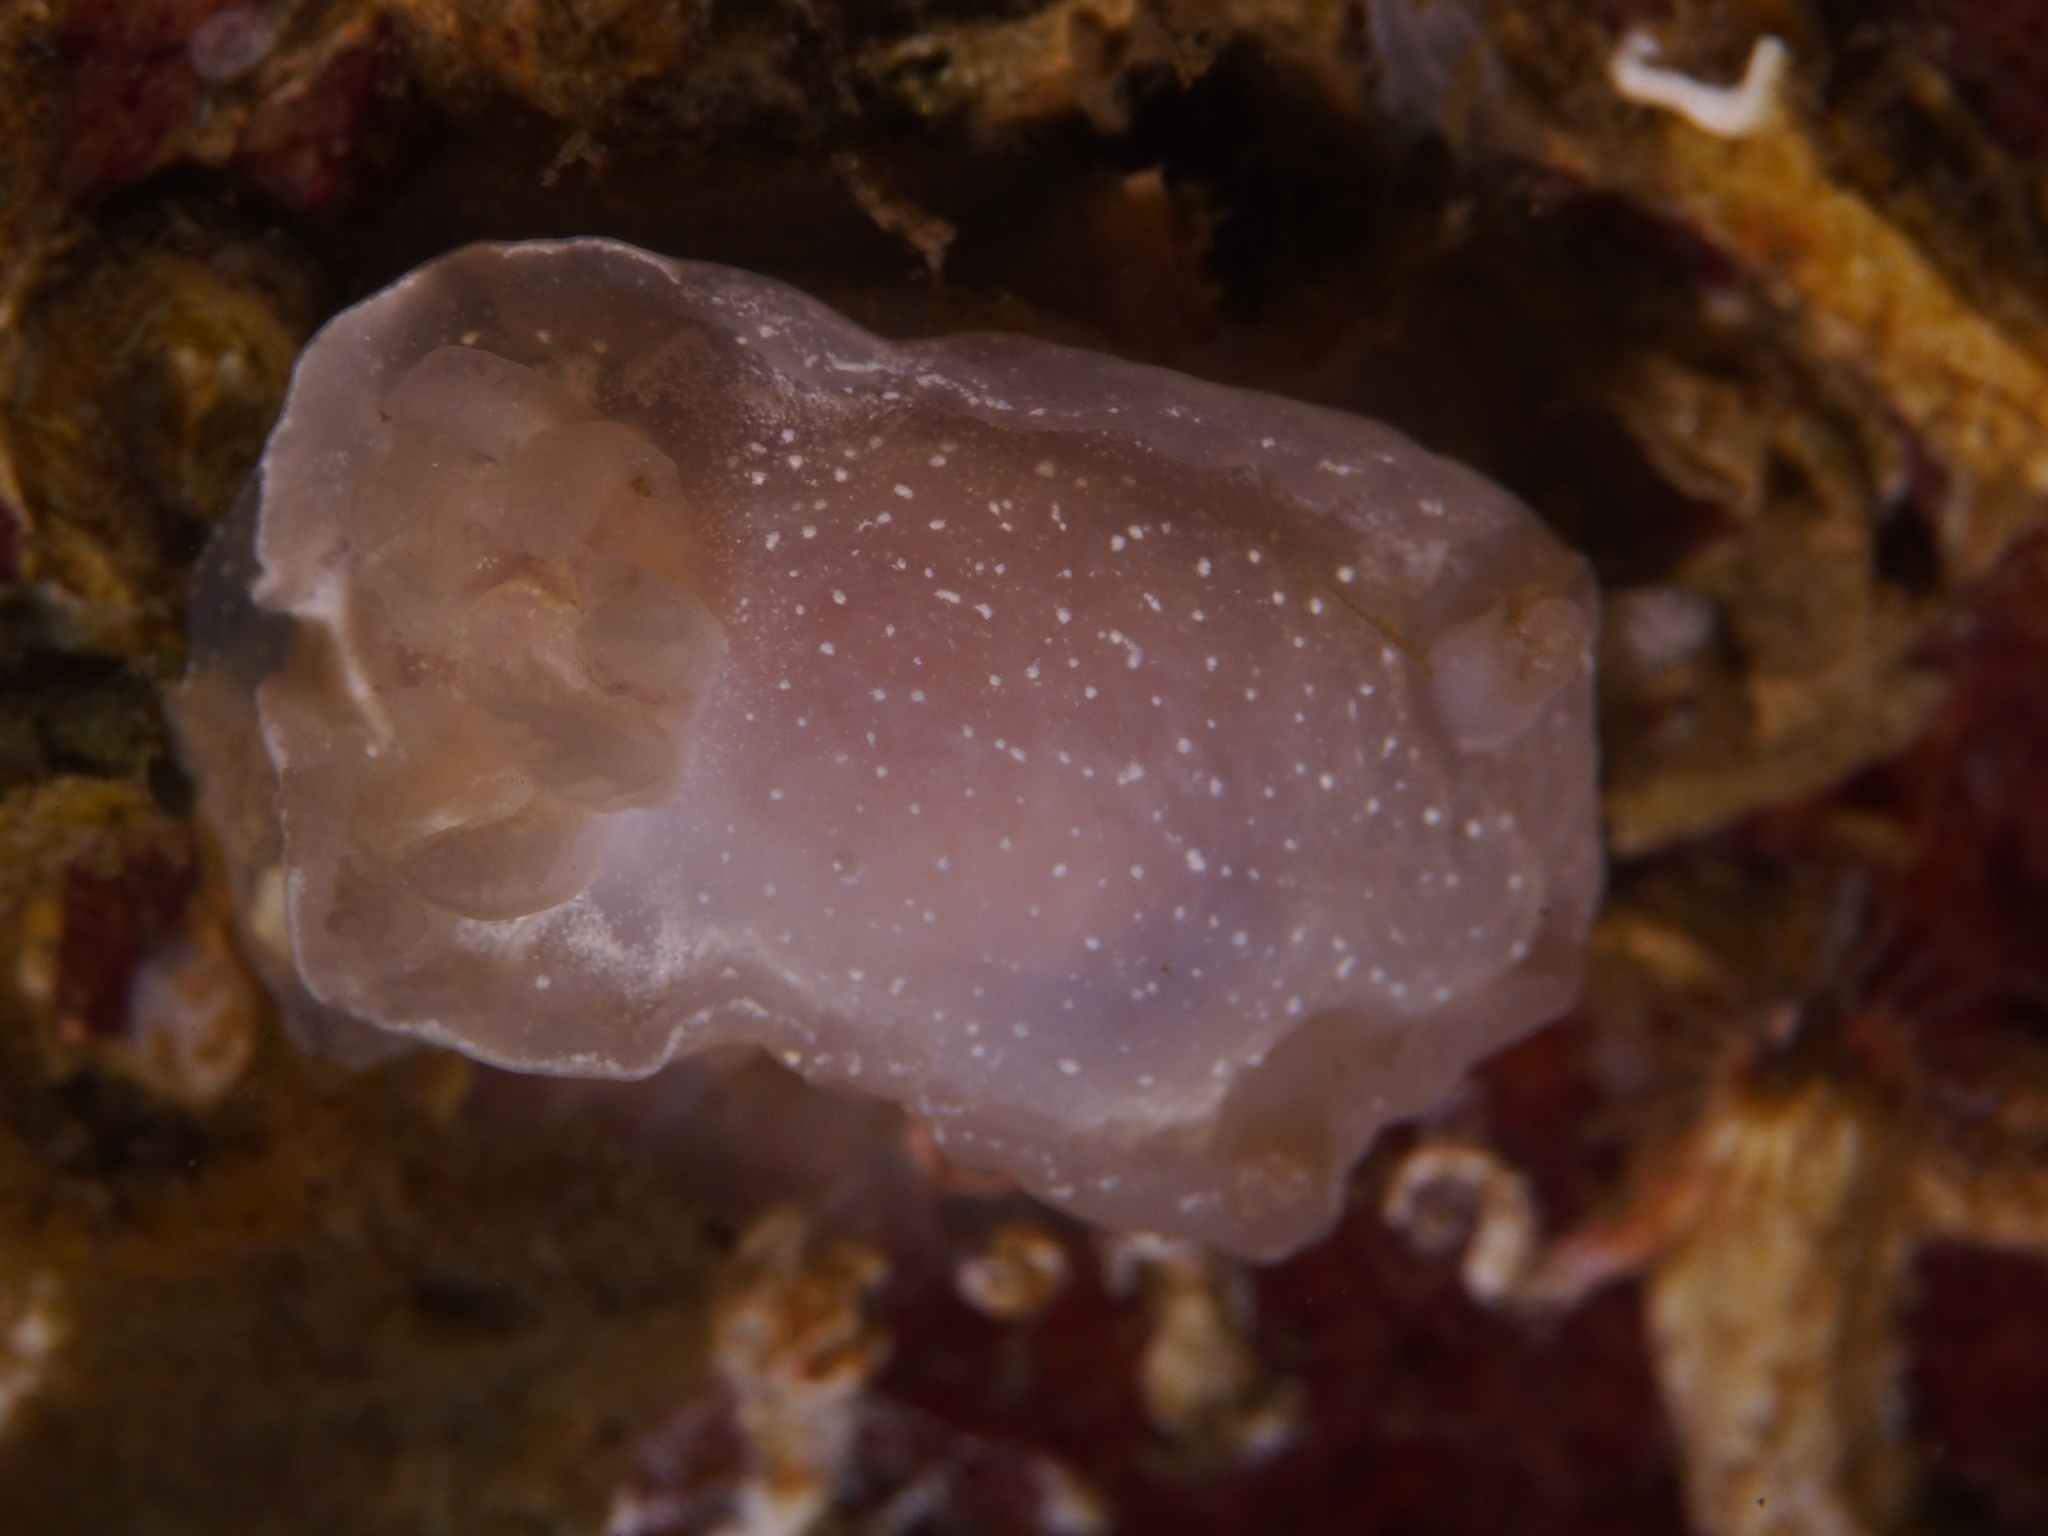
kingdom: Animalia
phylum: Mollusca
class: Gastropoda
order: Nudibranchia
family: Goniodorididae
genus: Okenia
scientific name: Okenia
